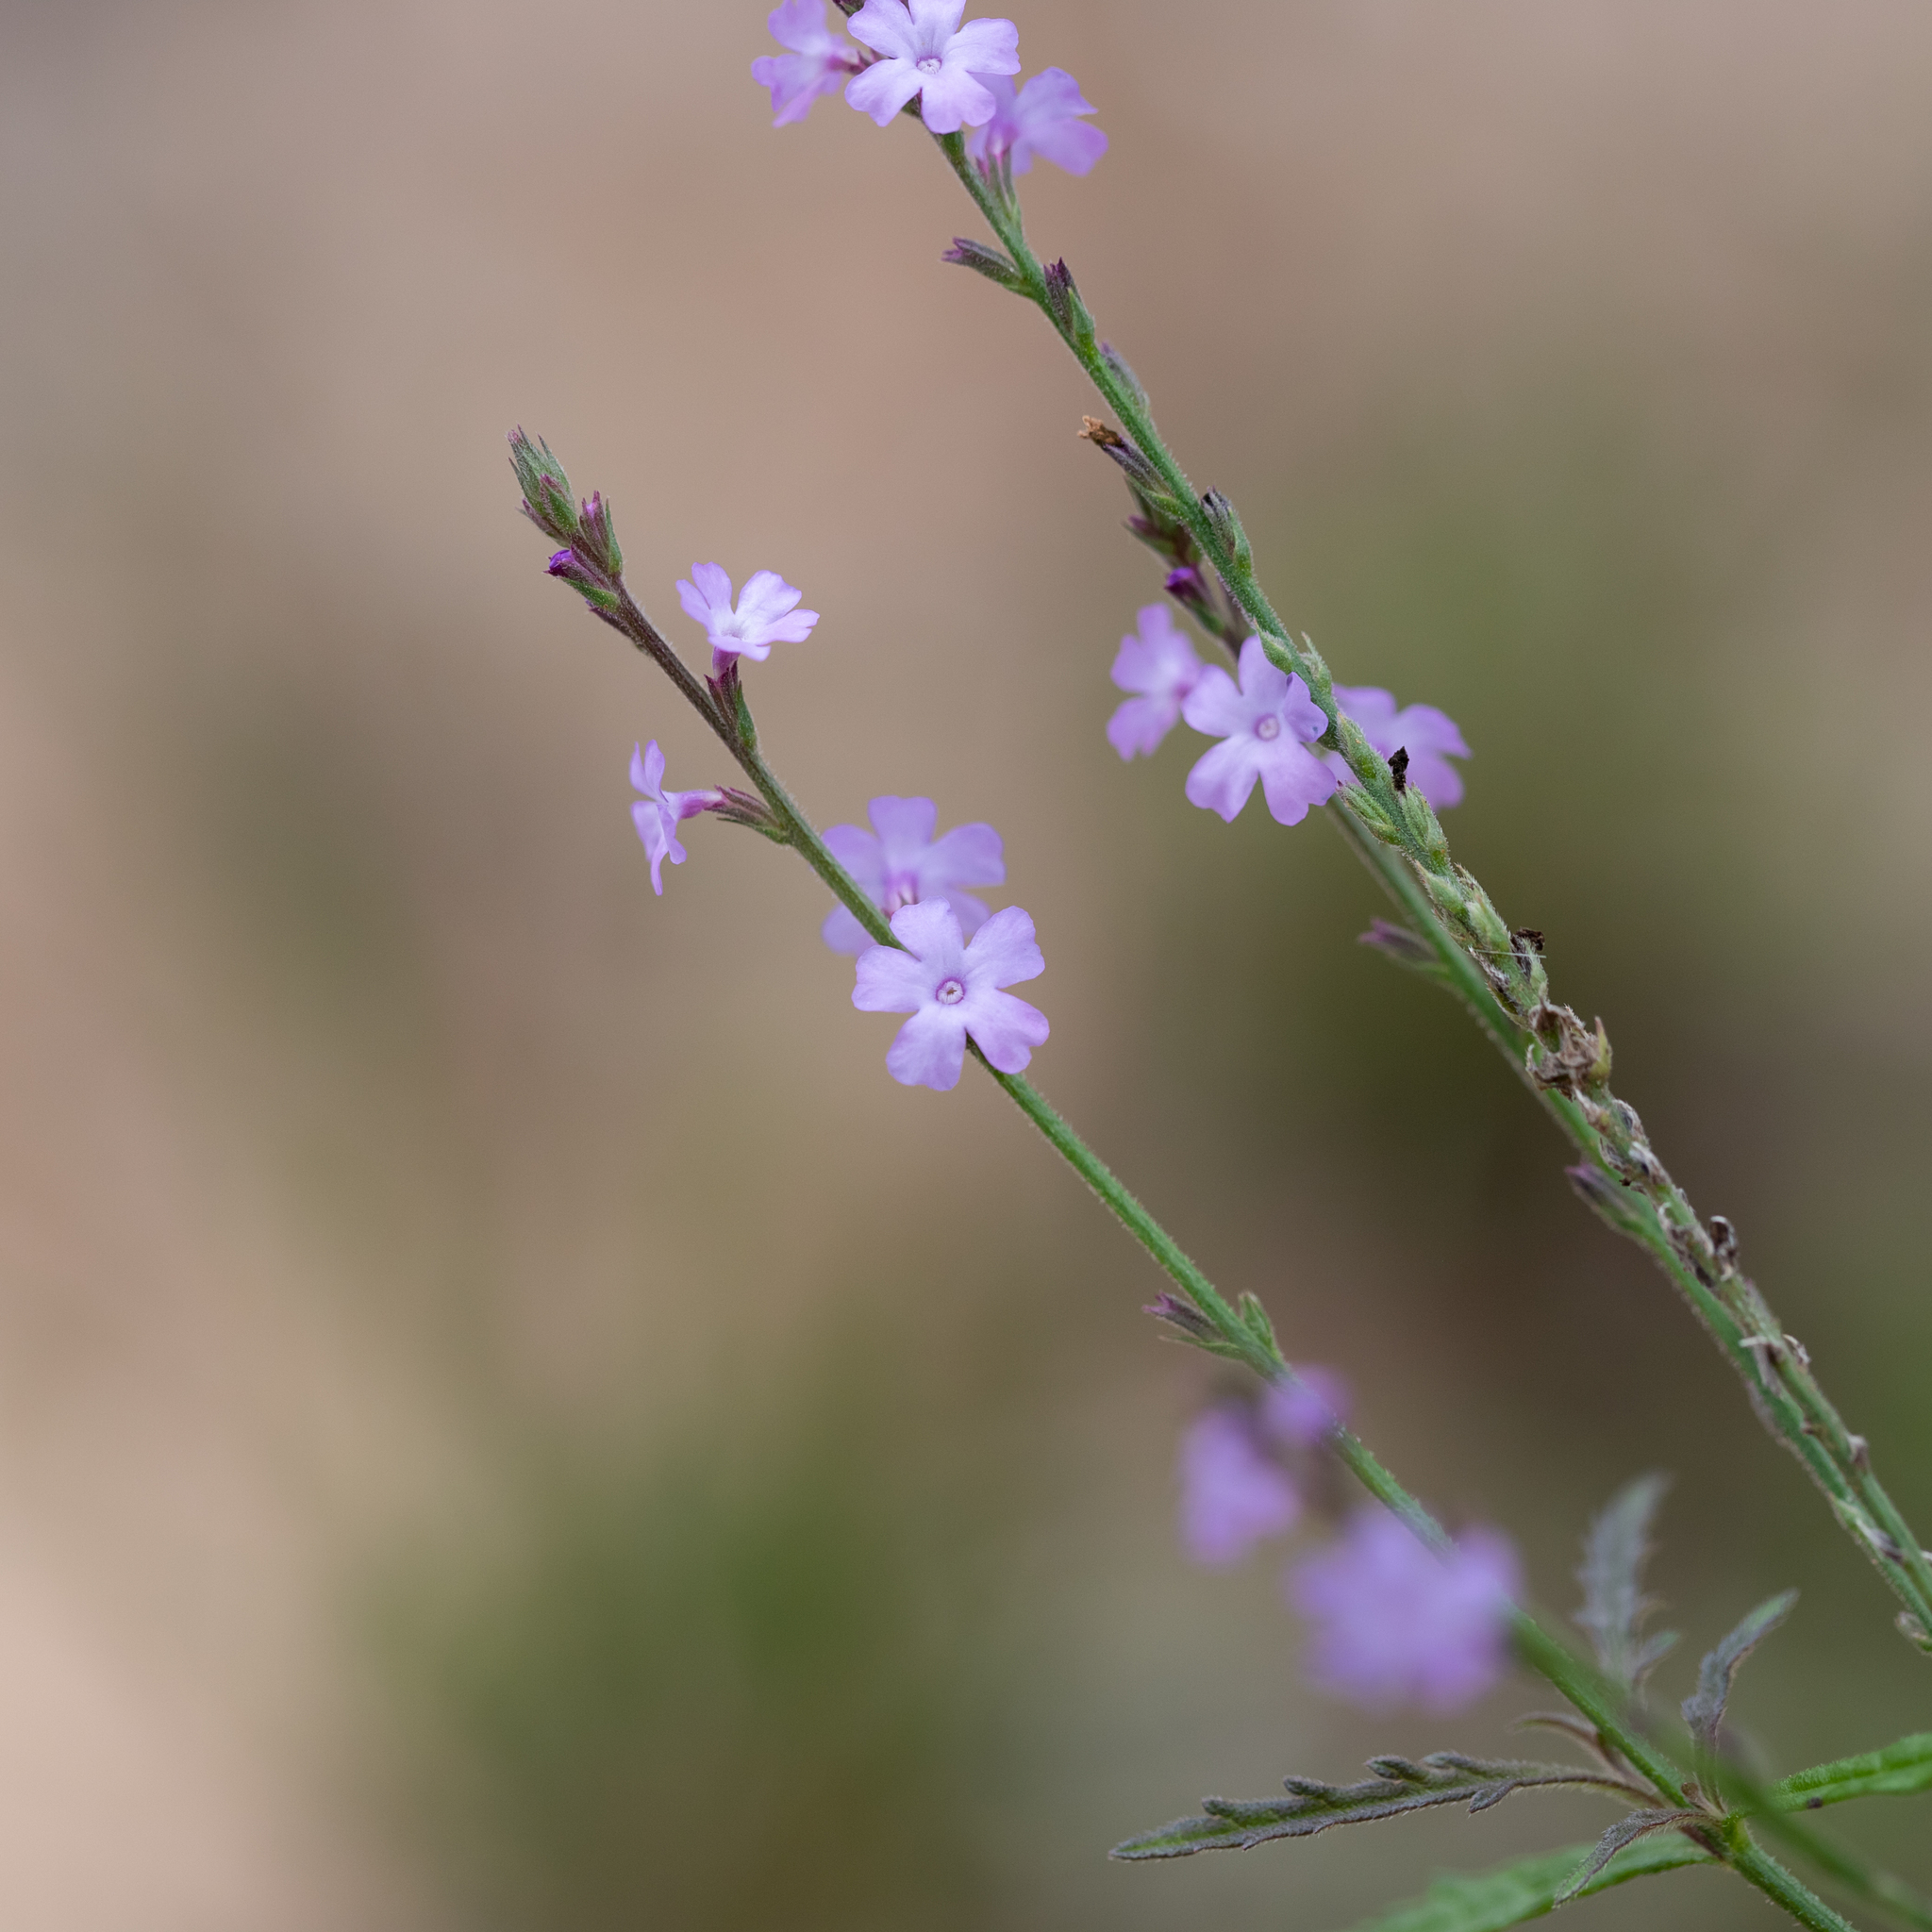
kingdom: Plantae
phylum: Tracheophyta
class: Magnoliopsida
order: Lamiales
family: Verbenaceae
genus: Verbena
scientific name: Verbena halei
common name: Texas vervain
